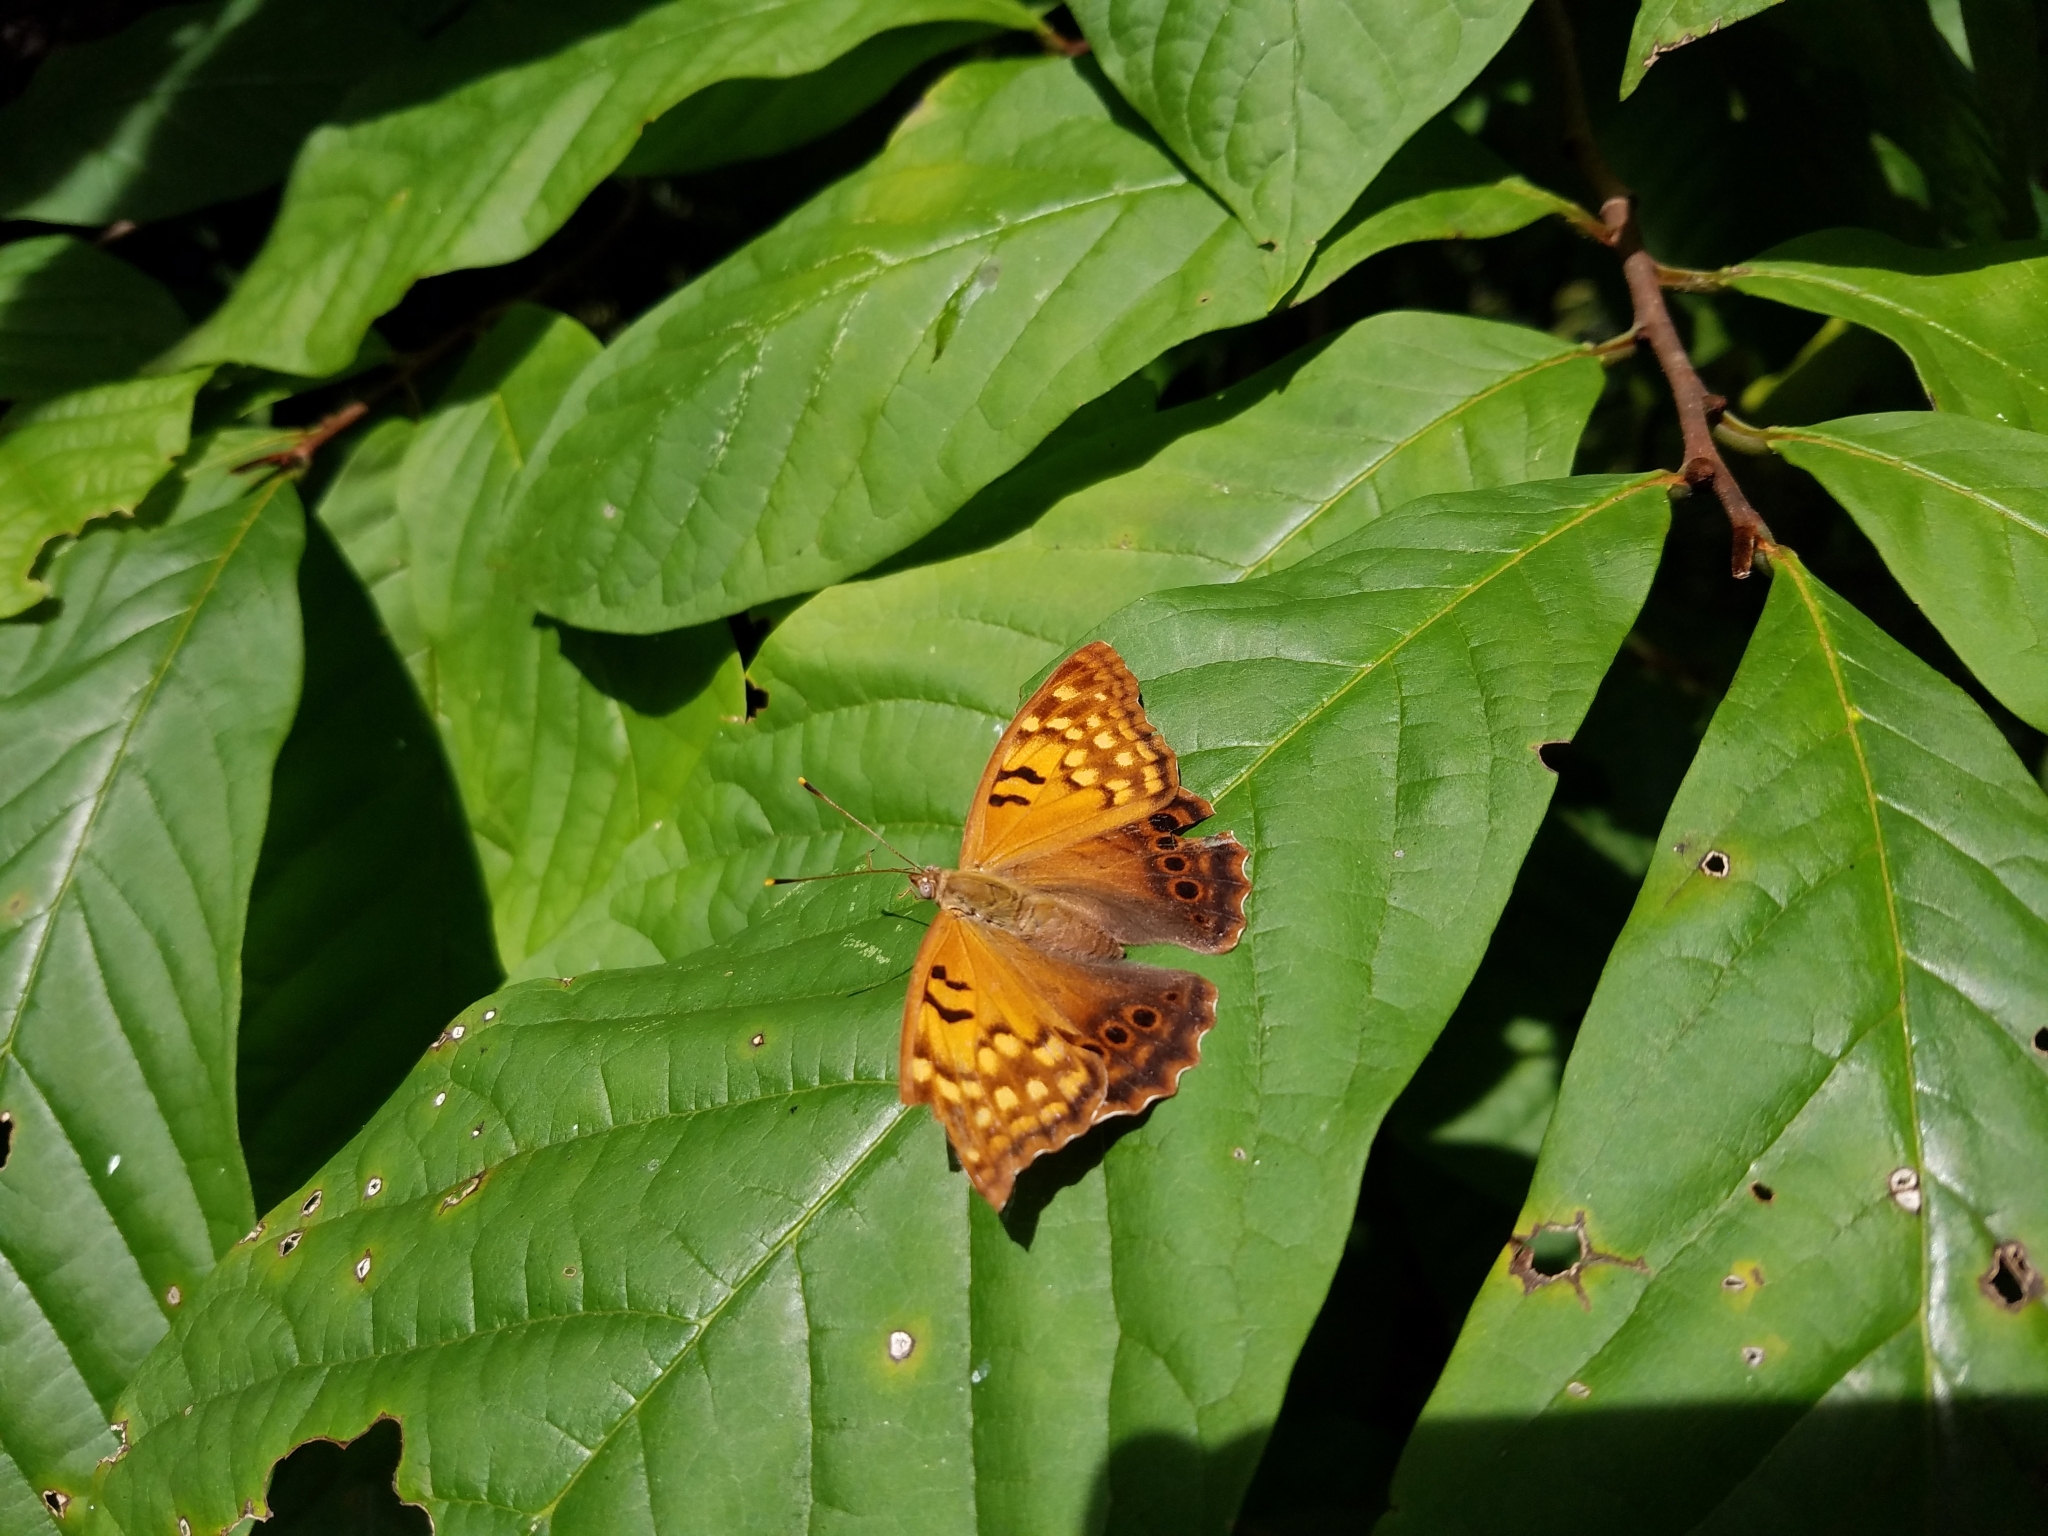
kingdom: Animalia
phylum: Arthropoda
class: Insecta
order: Lepidoptera
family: Nymphalidae
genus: Asterocampa
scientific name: Asterocampa clyton
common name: Tawny emperor
